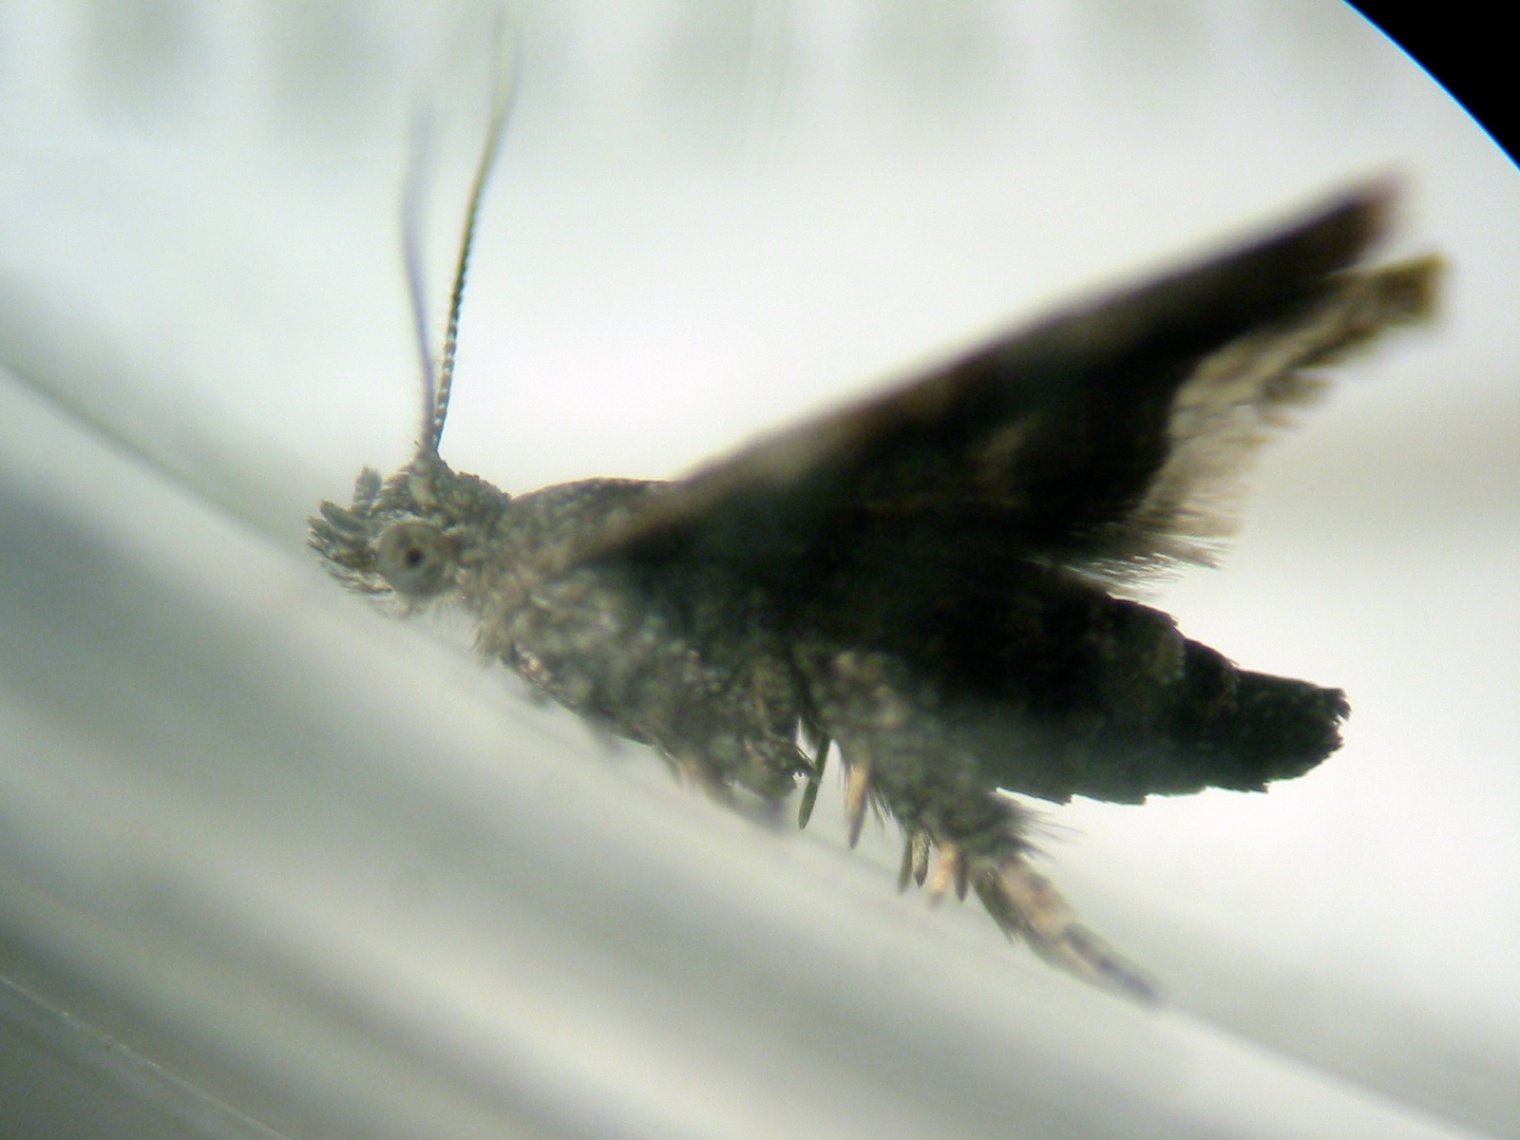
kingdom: Animalia
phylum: Arthropoda
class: Insecta
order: Lepidoptera
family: Choreutidae
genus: Asterivora
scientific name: Asterivora colpota
